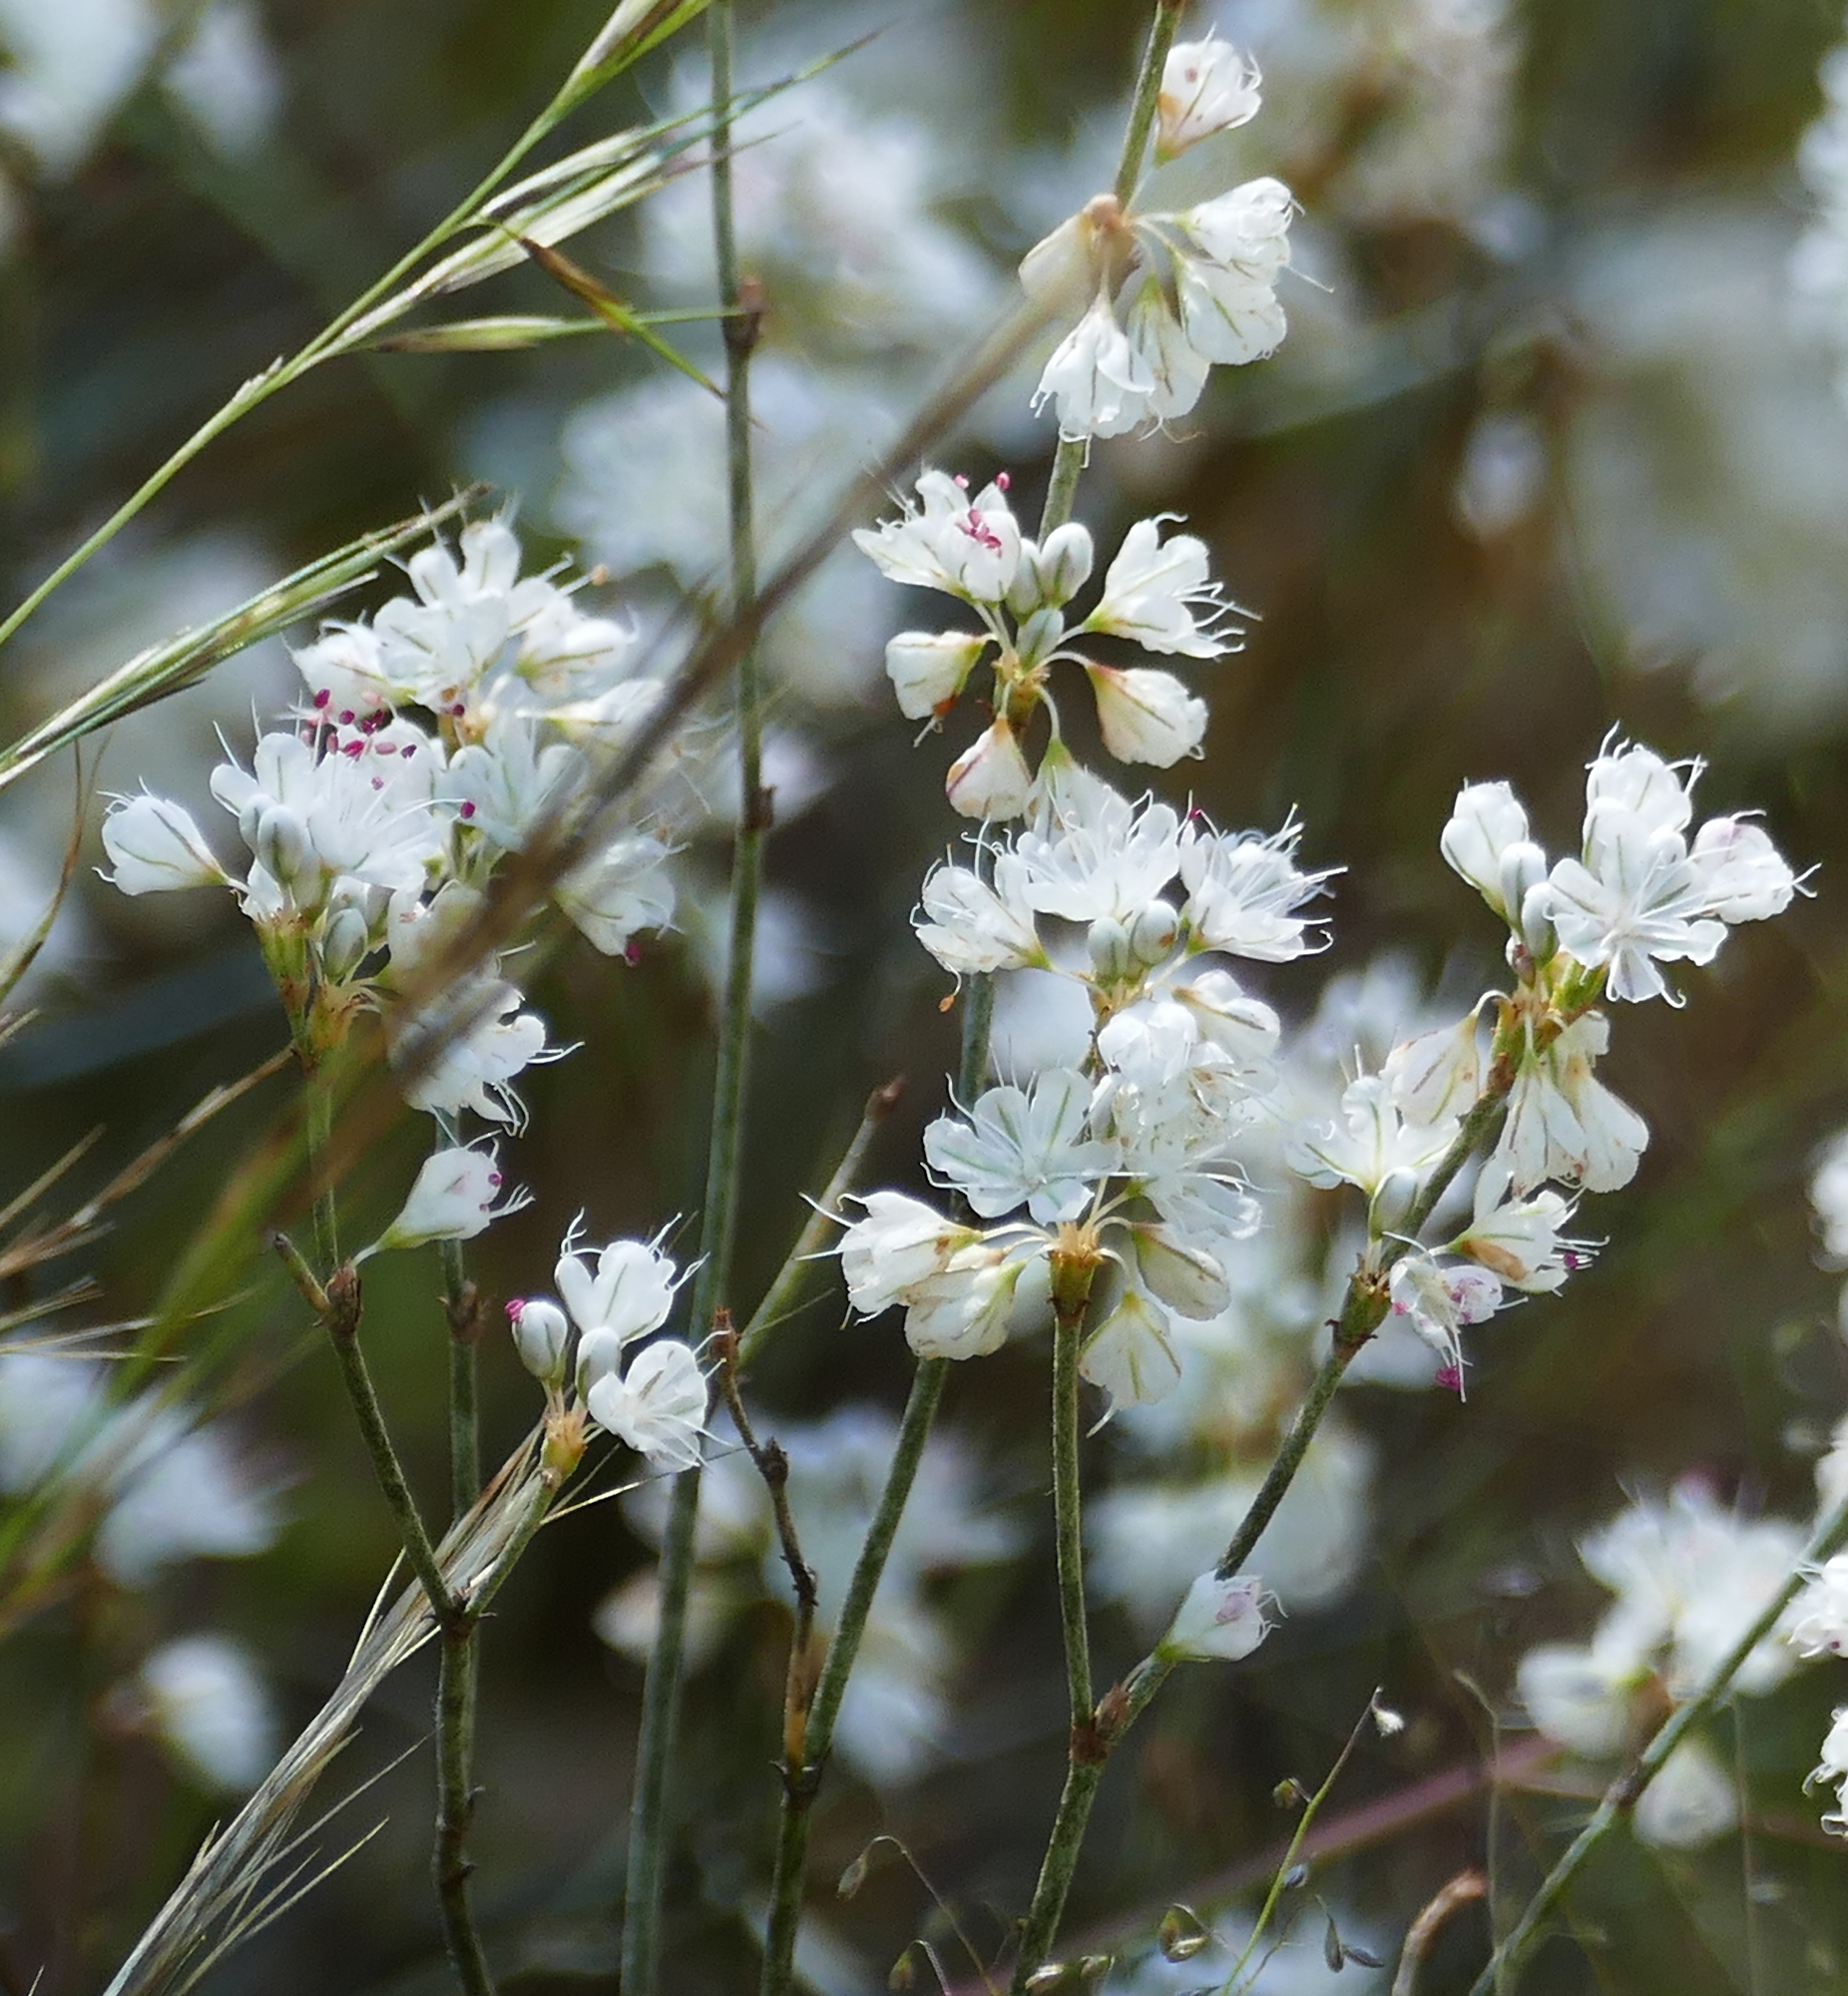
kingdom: Plantae
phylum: Tracheophyta
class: Magnoliopsida
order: Caryophyllales
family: Polygonaceae
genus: Eriogonum
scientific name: Eriogonum wrightii
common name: Bastard-sage
